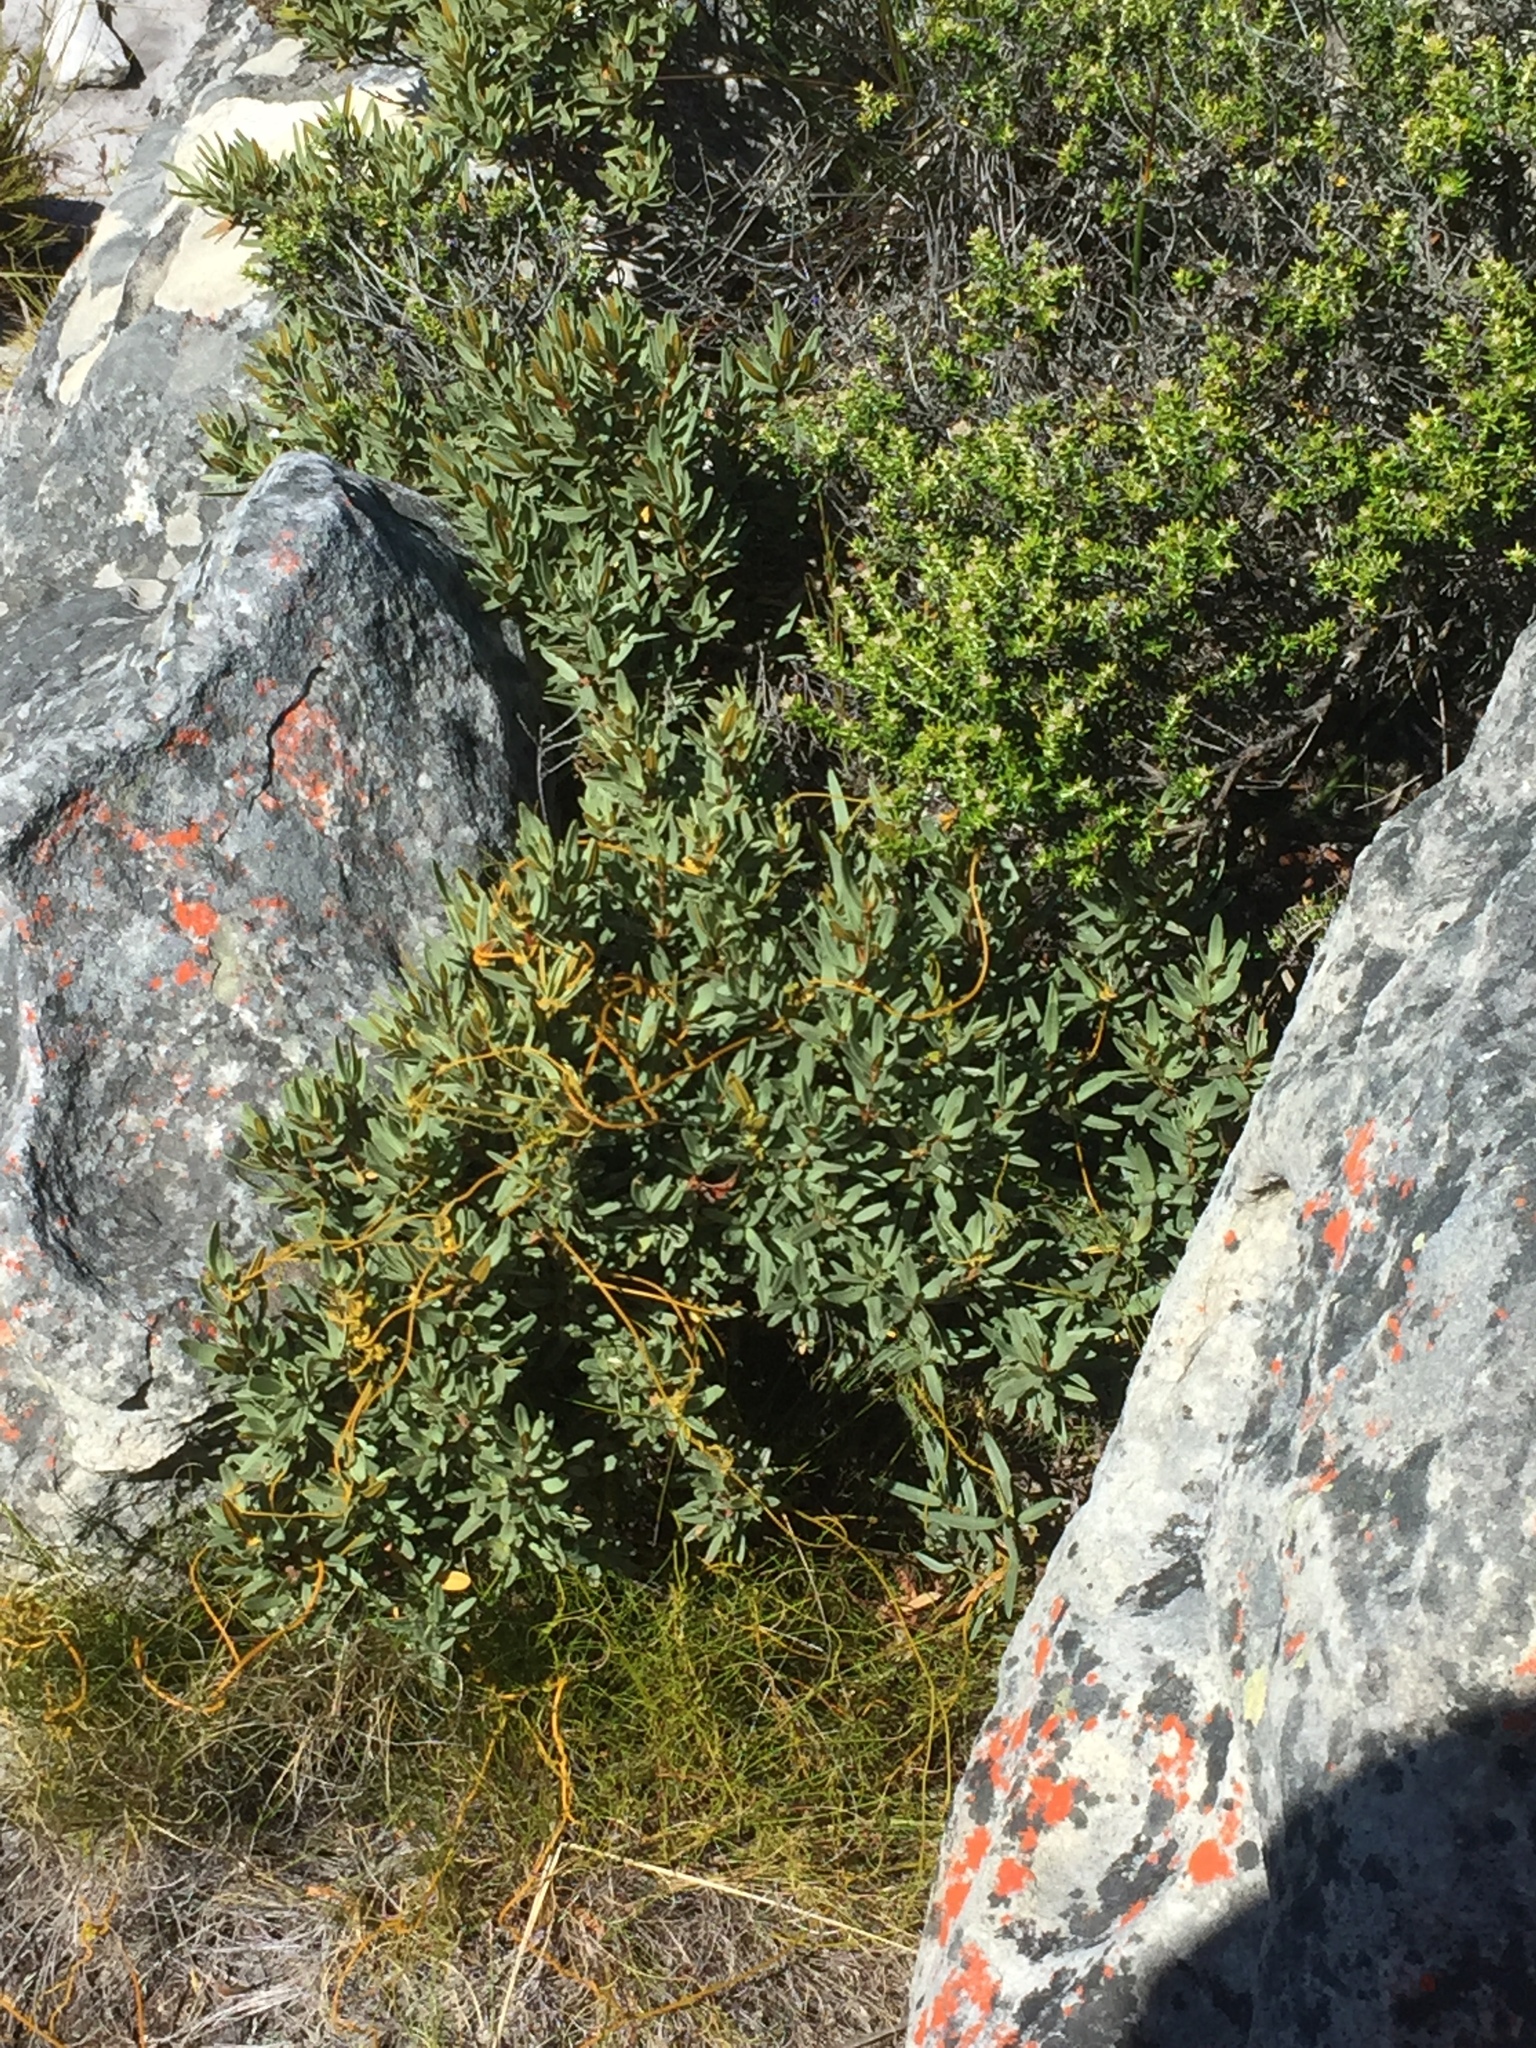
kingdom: Plantae
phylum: Tracheophyta
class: Magnoliopsida
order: Cornales
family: Grubbiaceae
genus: Grubbia
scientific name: Grubbia tomentosa
